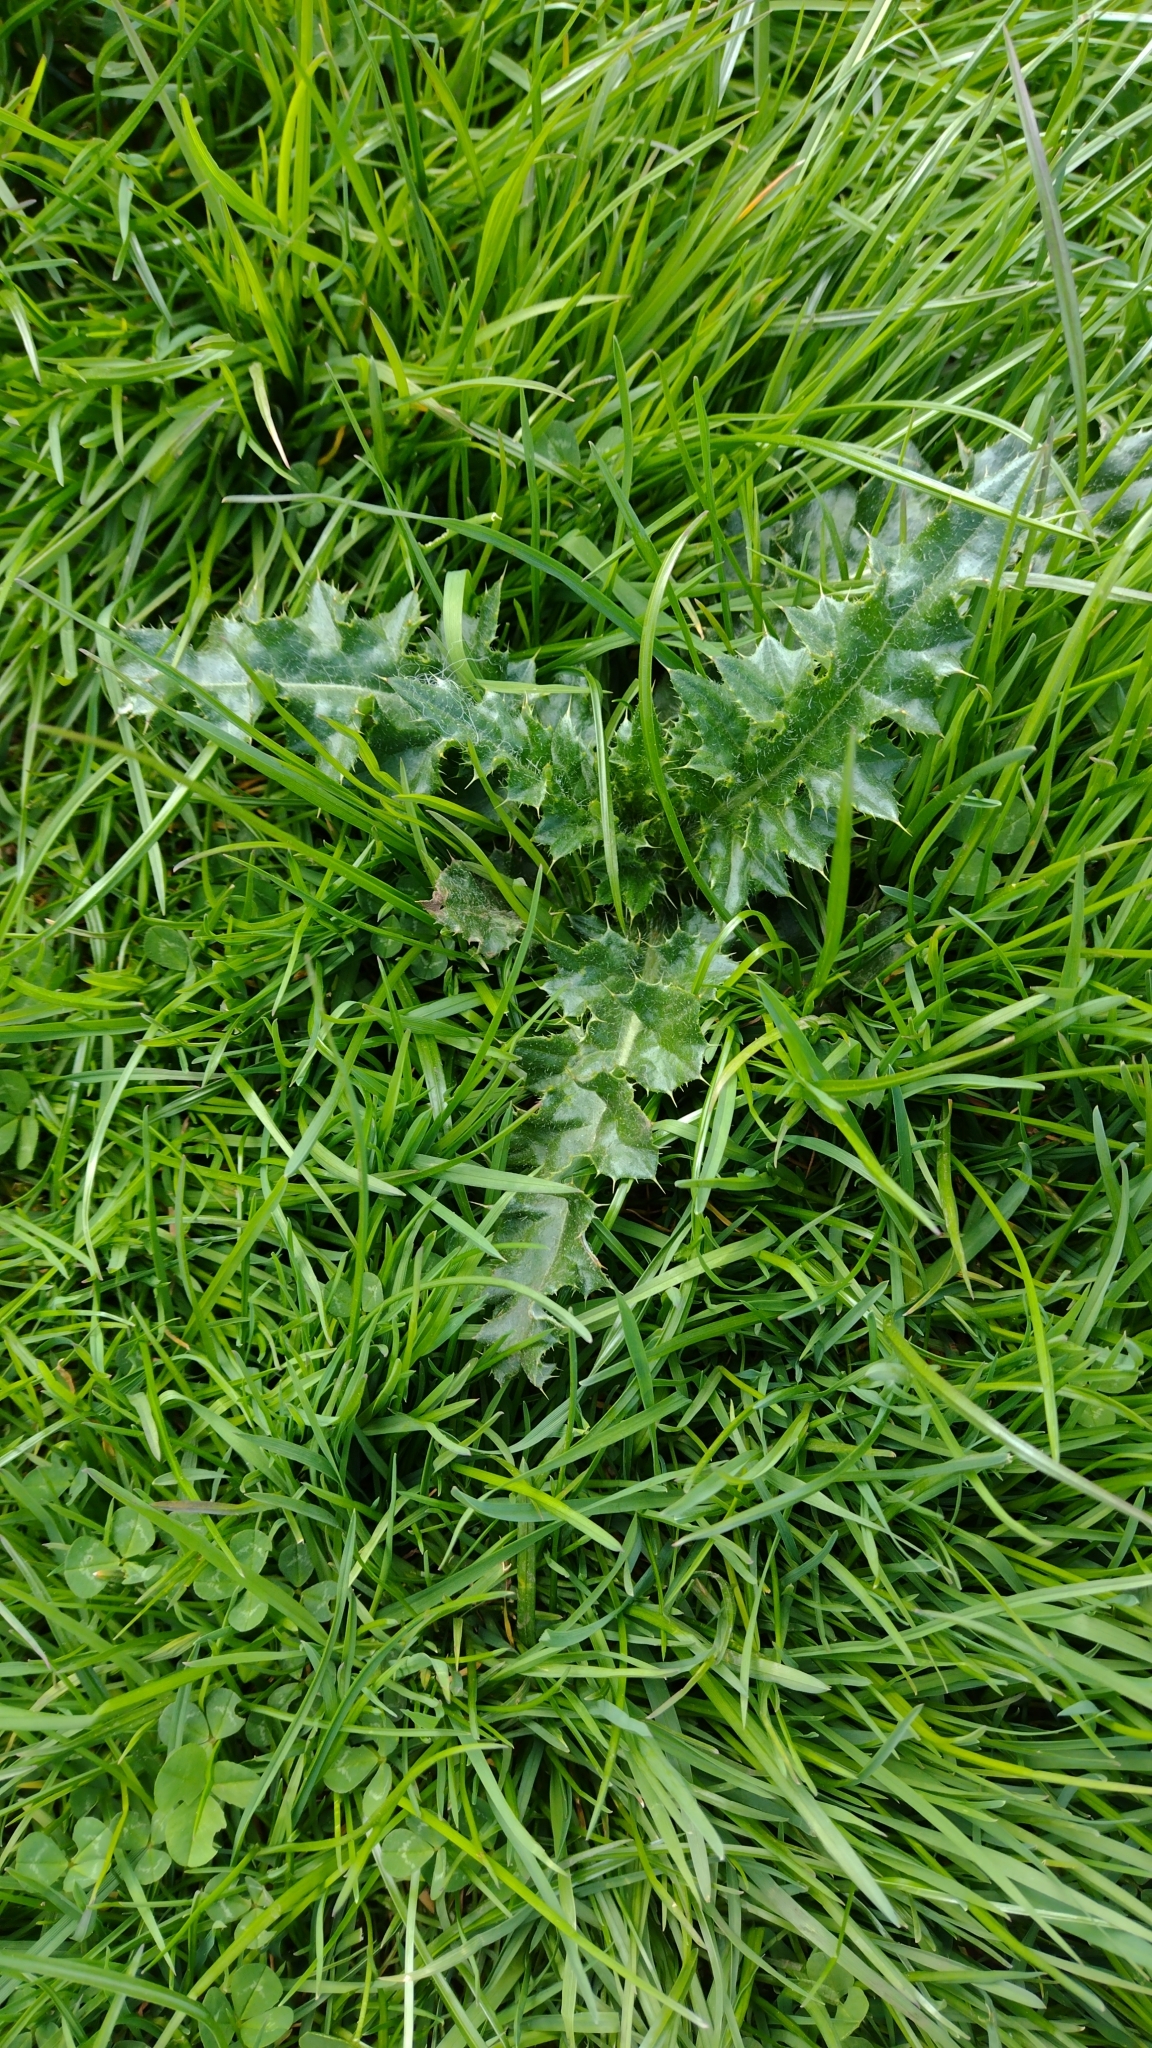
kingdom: Plantae
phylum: Tracheophyta
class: Magnoliopsida
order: Asterales
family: Asteraceae
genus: Cirsium
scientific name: Cirsium arvense
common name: Creeping thistle
